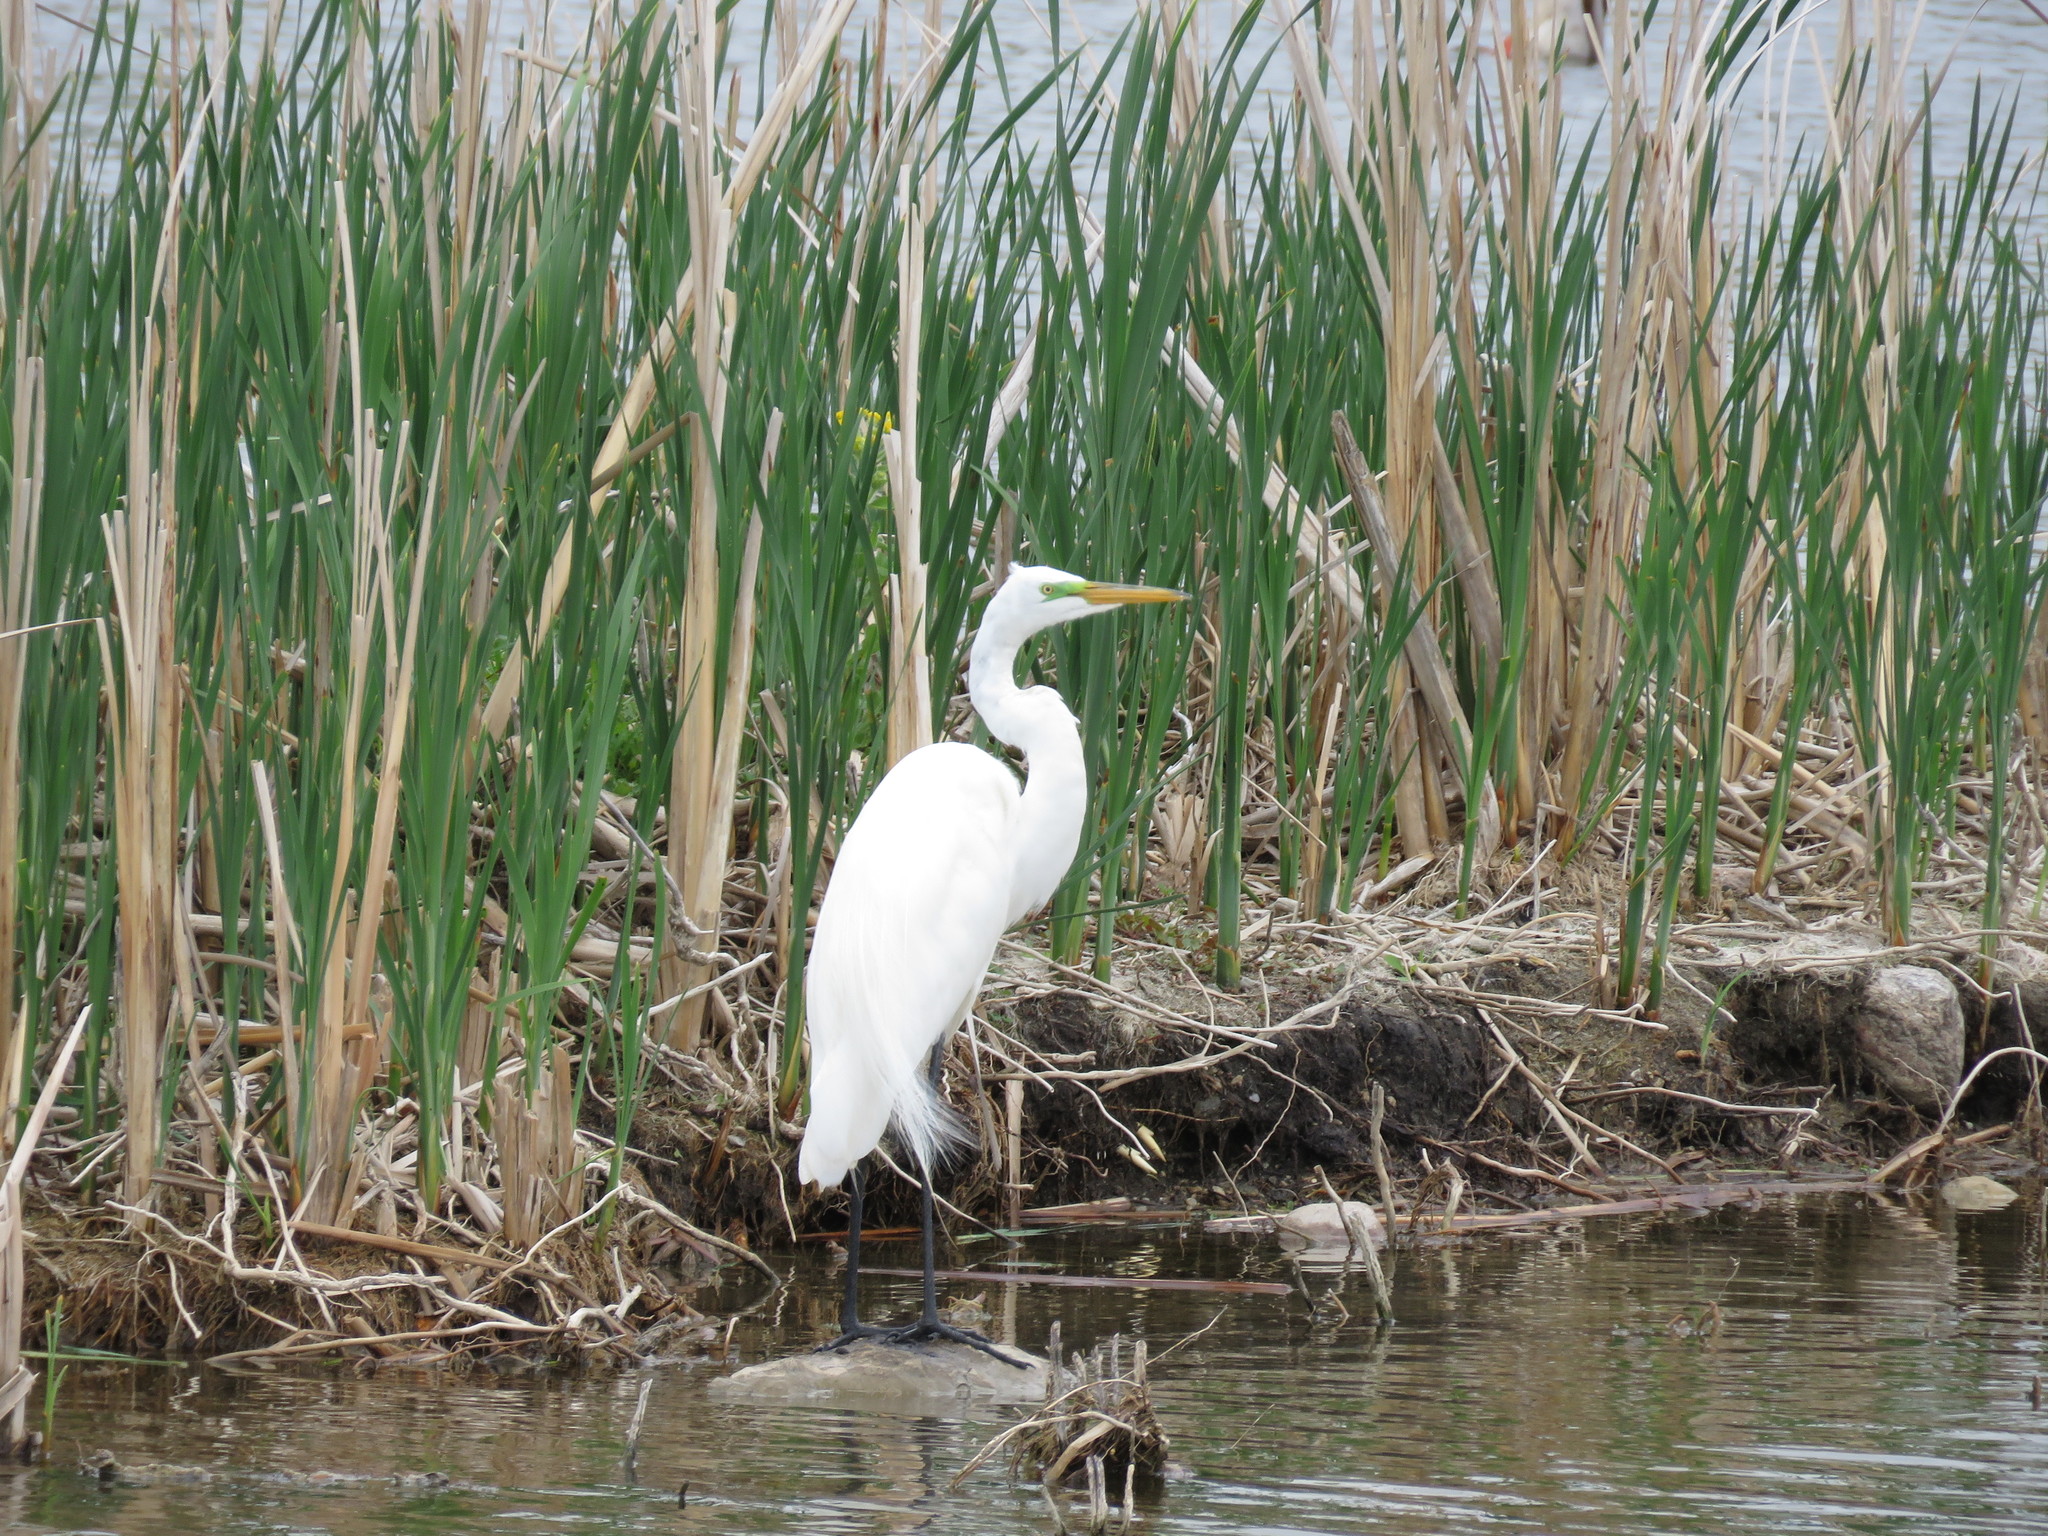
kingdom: Animalia
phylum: Chordata
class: Aves
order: Pelecaniformes
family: Ardeidae
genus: Ardea
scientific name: Ardea alba
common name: Great egret
